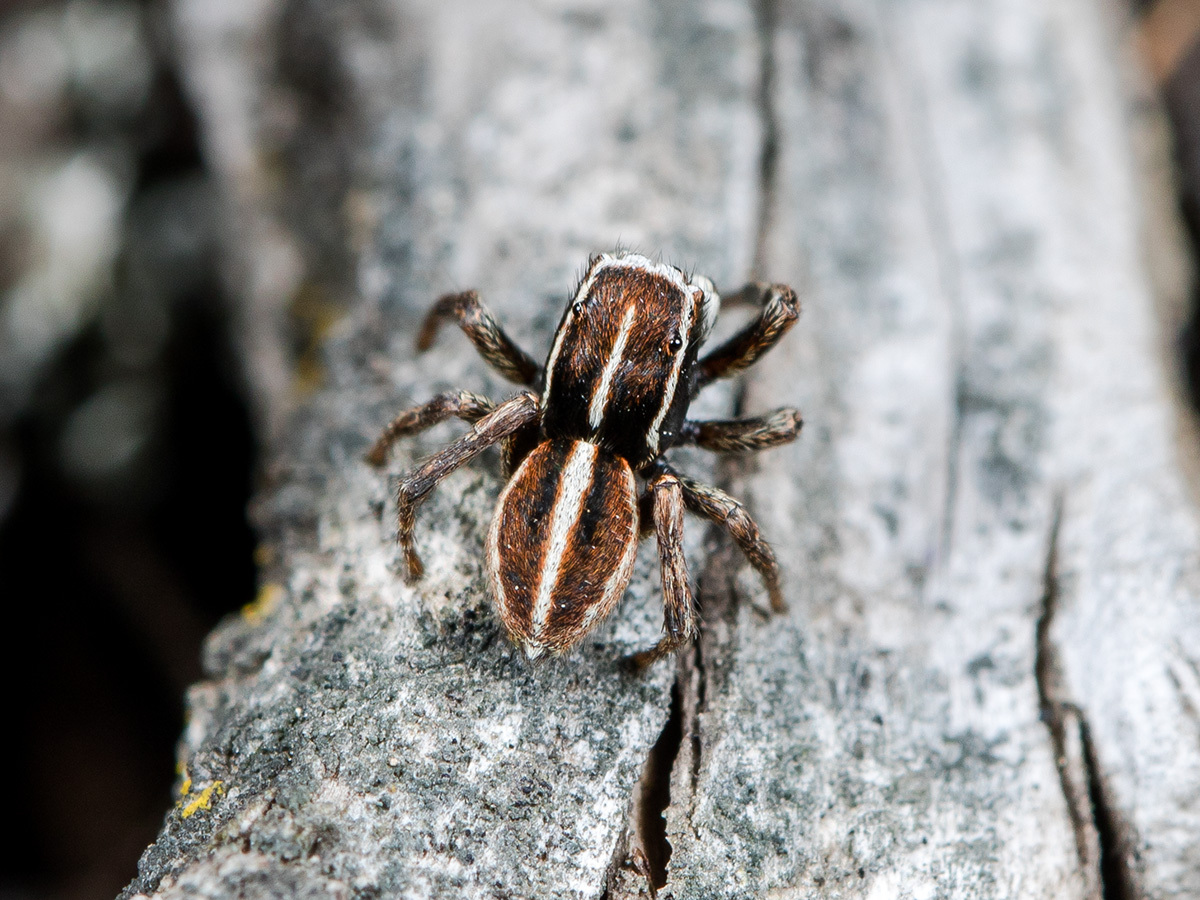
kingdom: Animalia
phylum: Arthropoda
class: Arachnida
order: Araneae
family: Salticidae
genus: Attulus
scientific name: Attulus talgarensis
